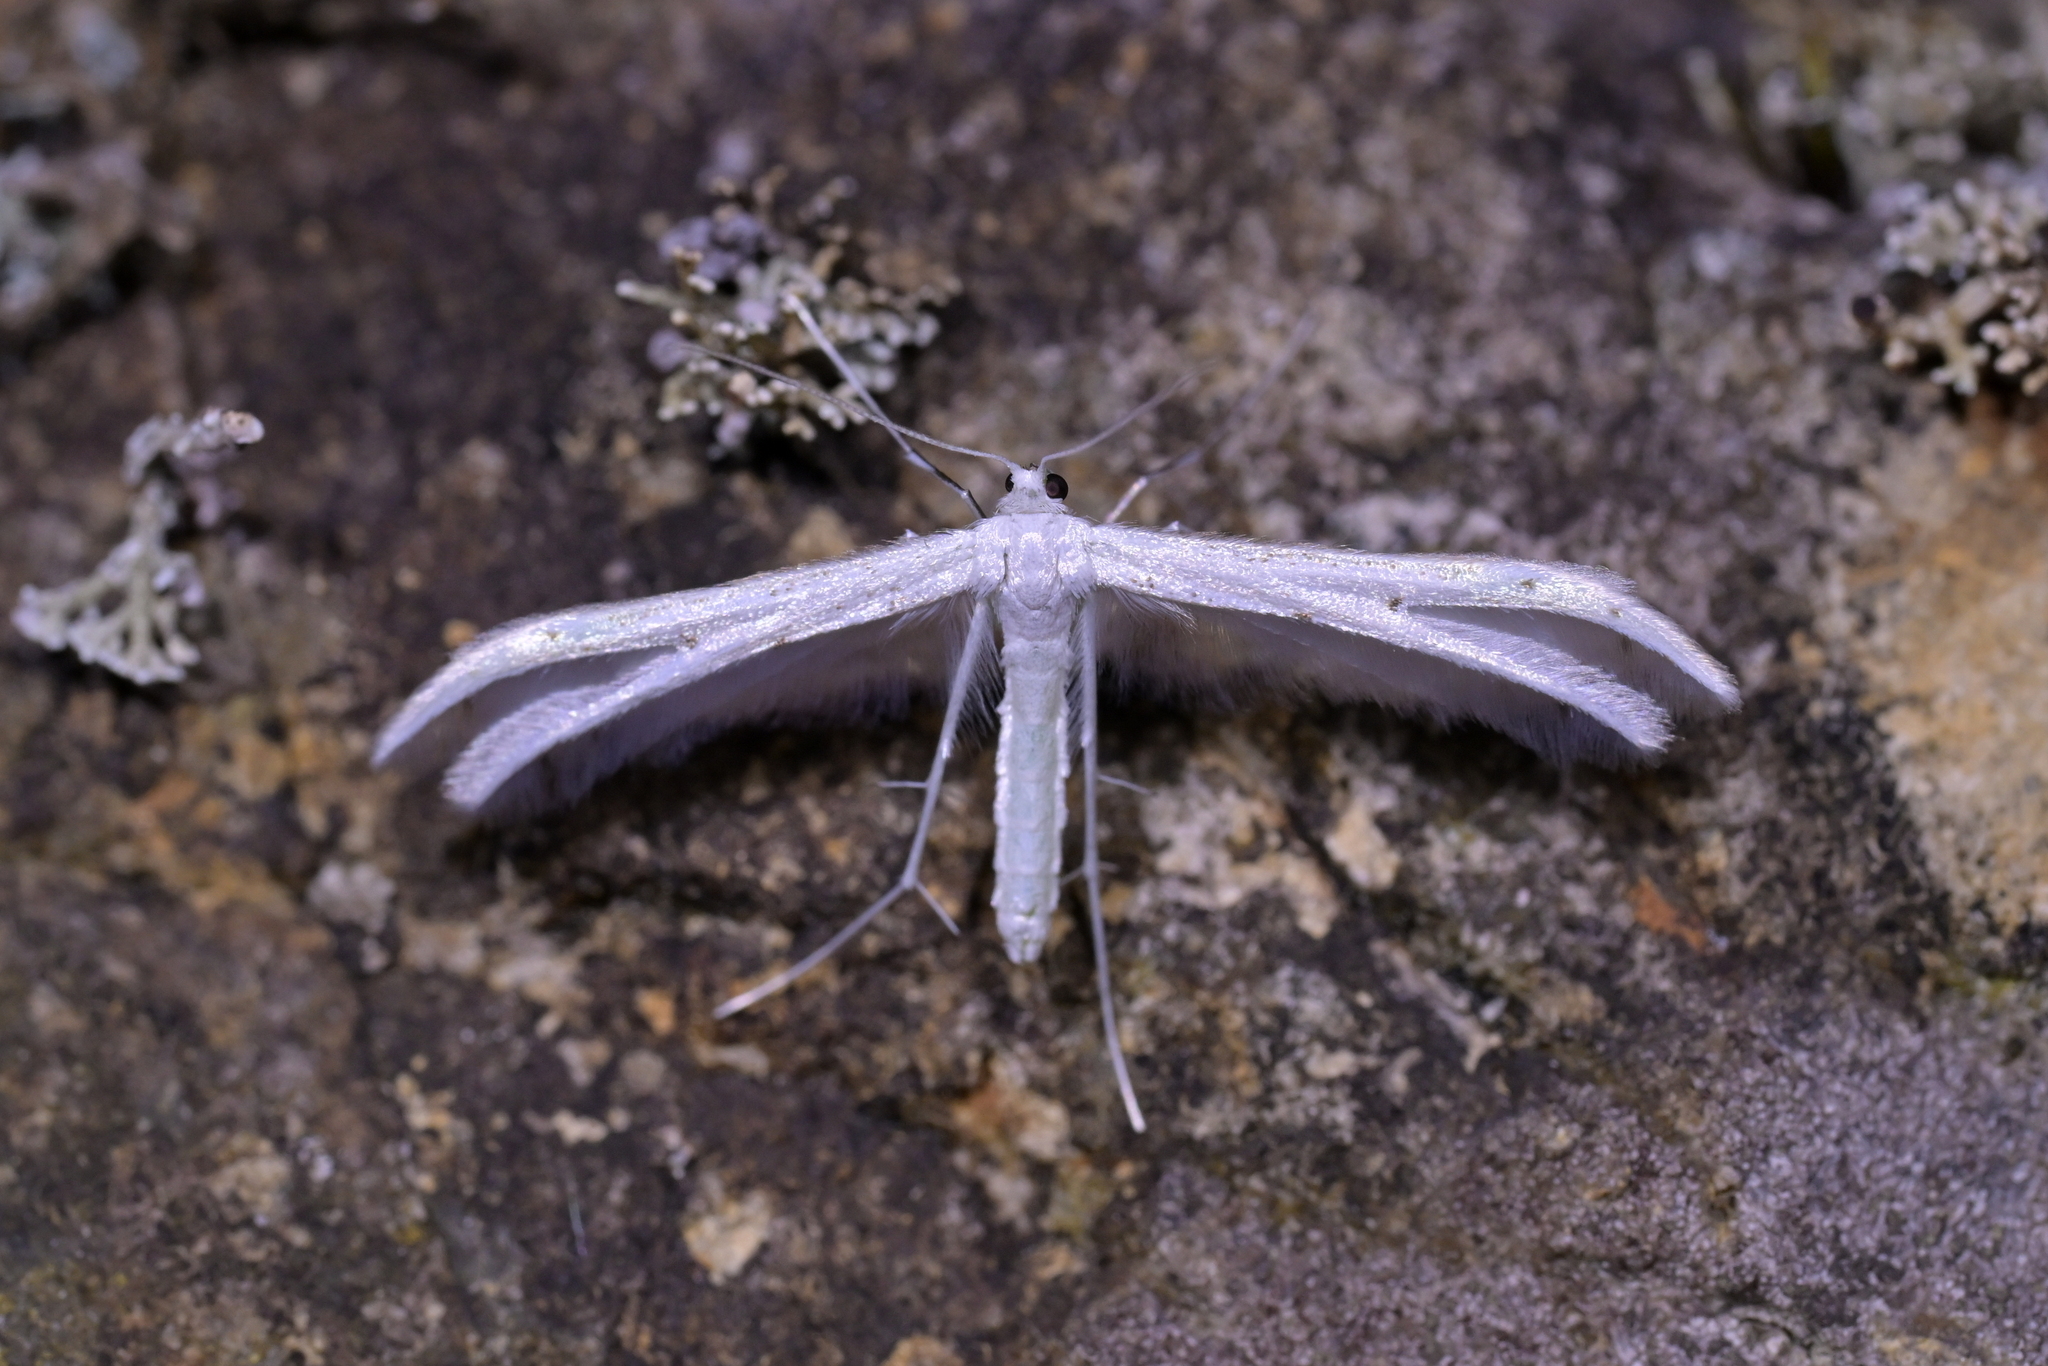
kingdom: Animalia
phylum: Arthropoda
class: Insecta
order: Lepidoptera
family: Pterophoridae
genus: Pterophorus
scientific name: Pterophorus monospilalis
